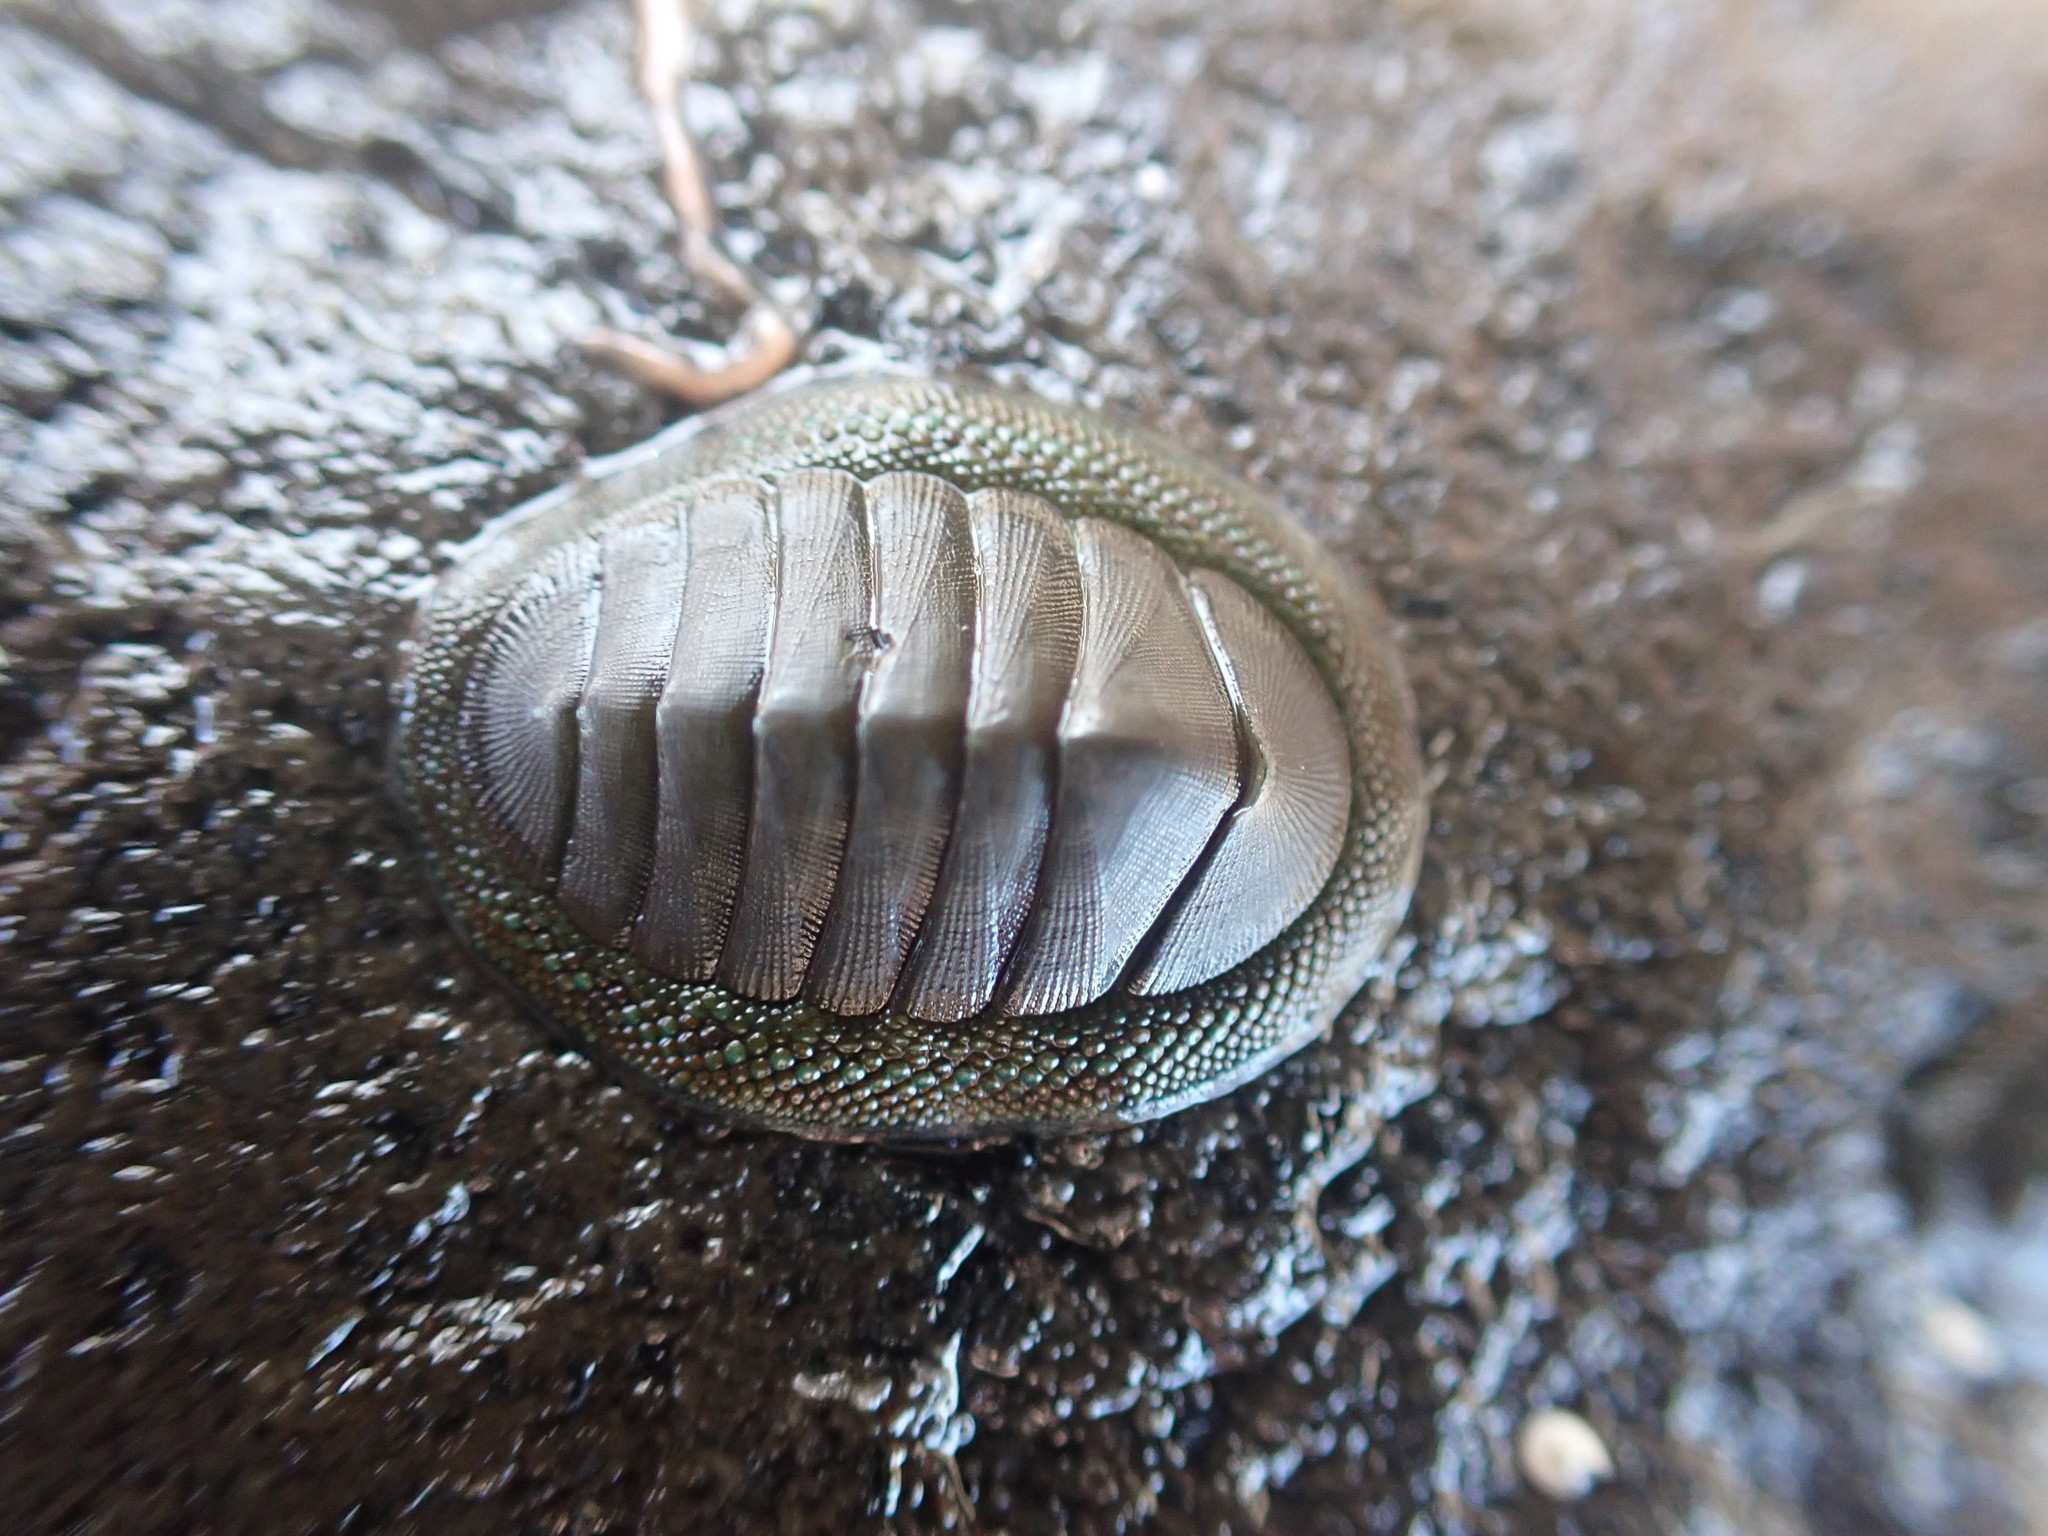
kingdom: Animalia
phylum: Mollusca
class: Polyplacophora
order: Chitonida
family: Chitonidae
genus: Chiton
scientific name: Chiton glaucus
